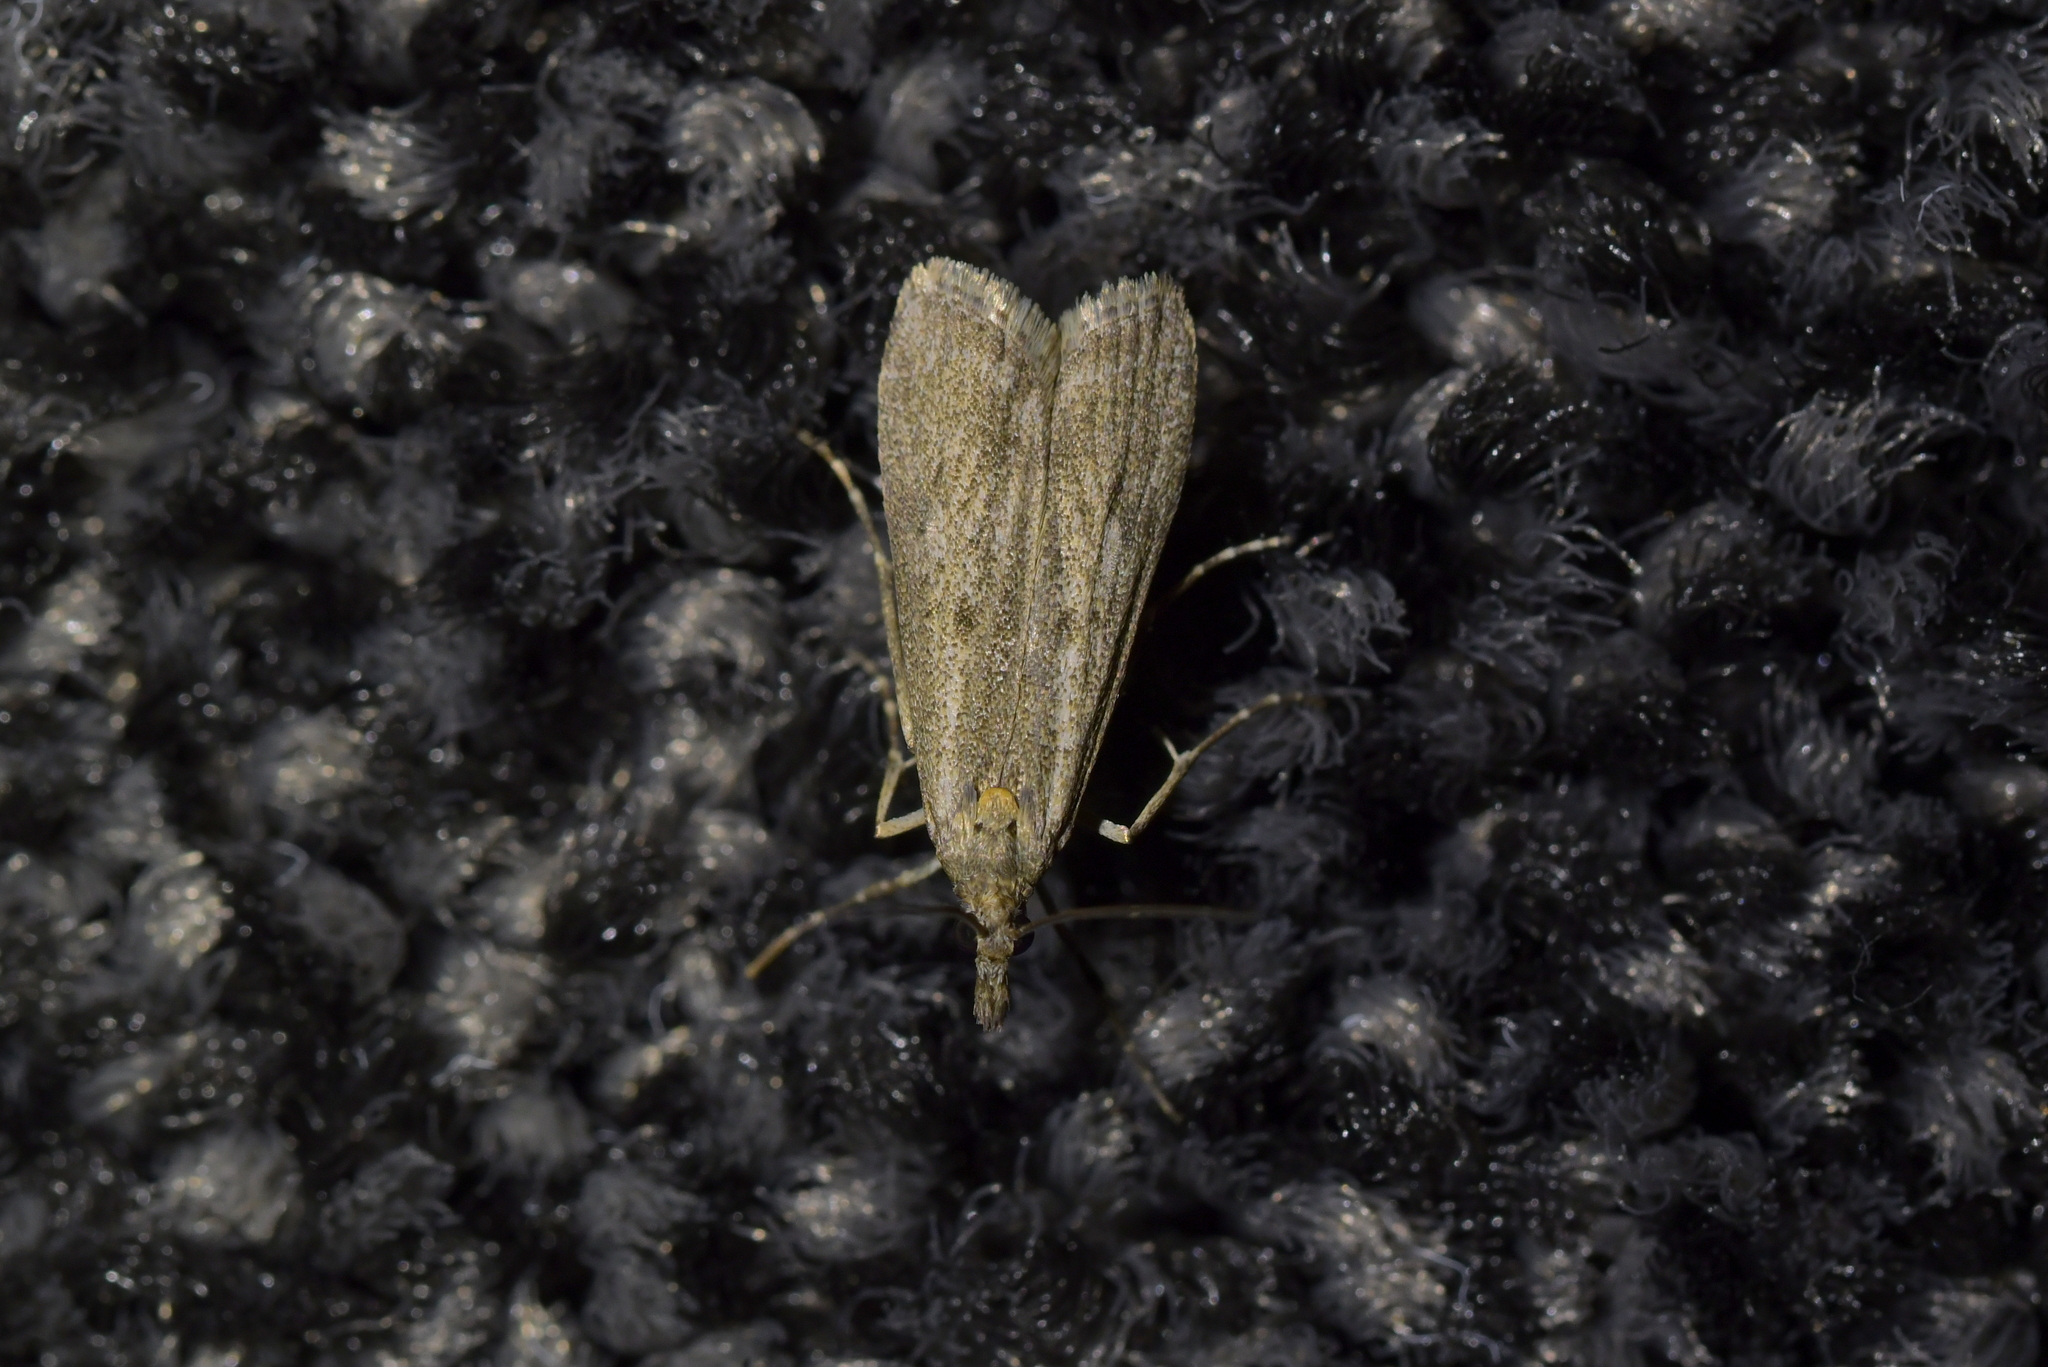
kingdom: Animalia
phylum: Arthropoda
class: Insecta
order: Lepidoptera
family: Crambidae
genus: Eudonia
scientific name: Eudonia leptalea
